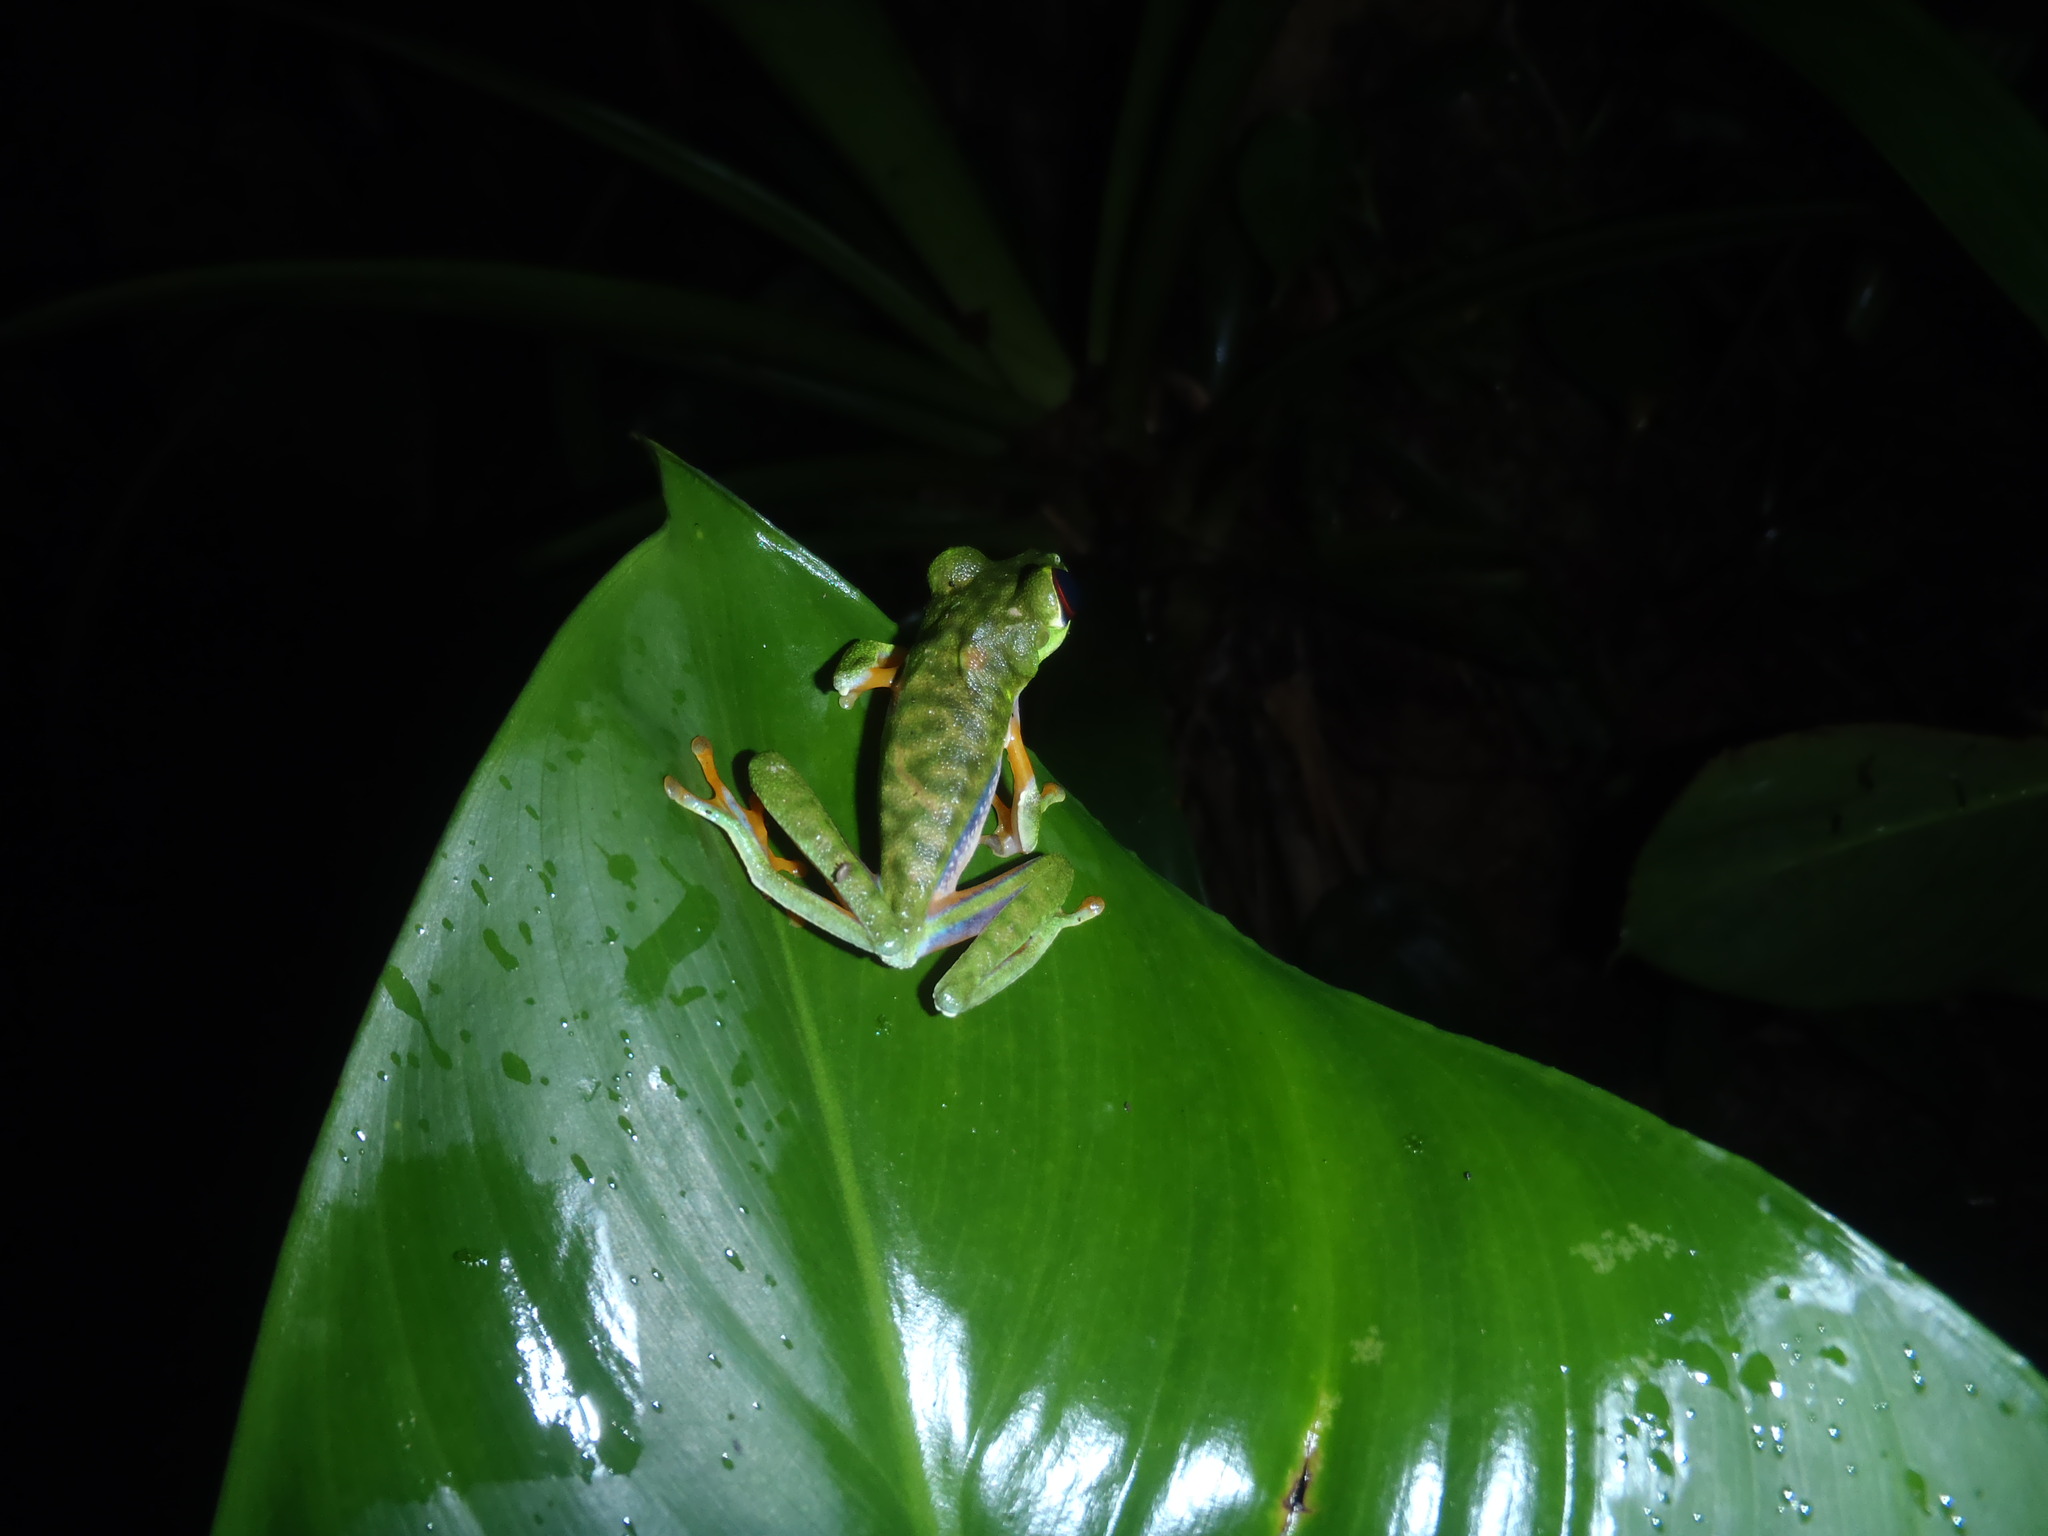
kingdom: Animalia
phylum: Chordata
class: Amphibia
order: Anura
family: Phyllomedusidae
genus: Agalychnis
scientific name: Agalychnis saltator
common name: Misfit leaf frog
